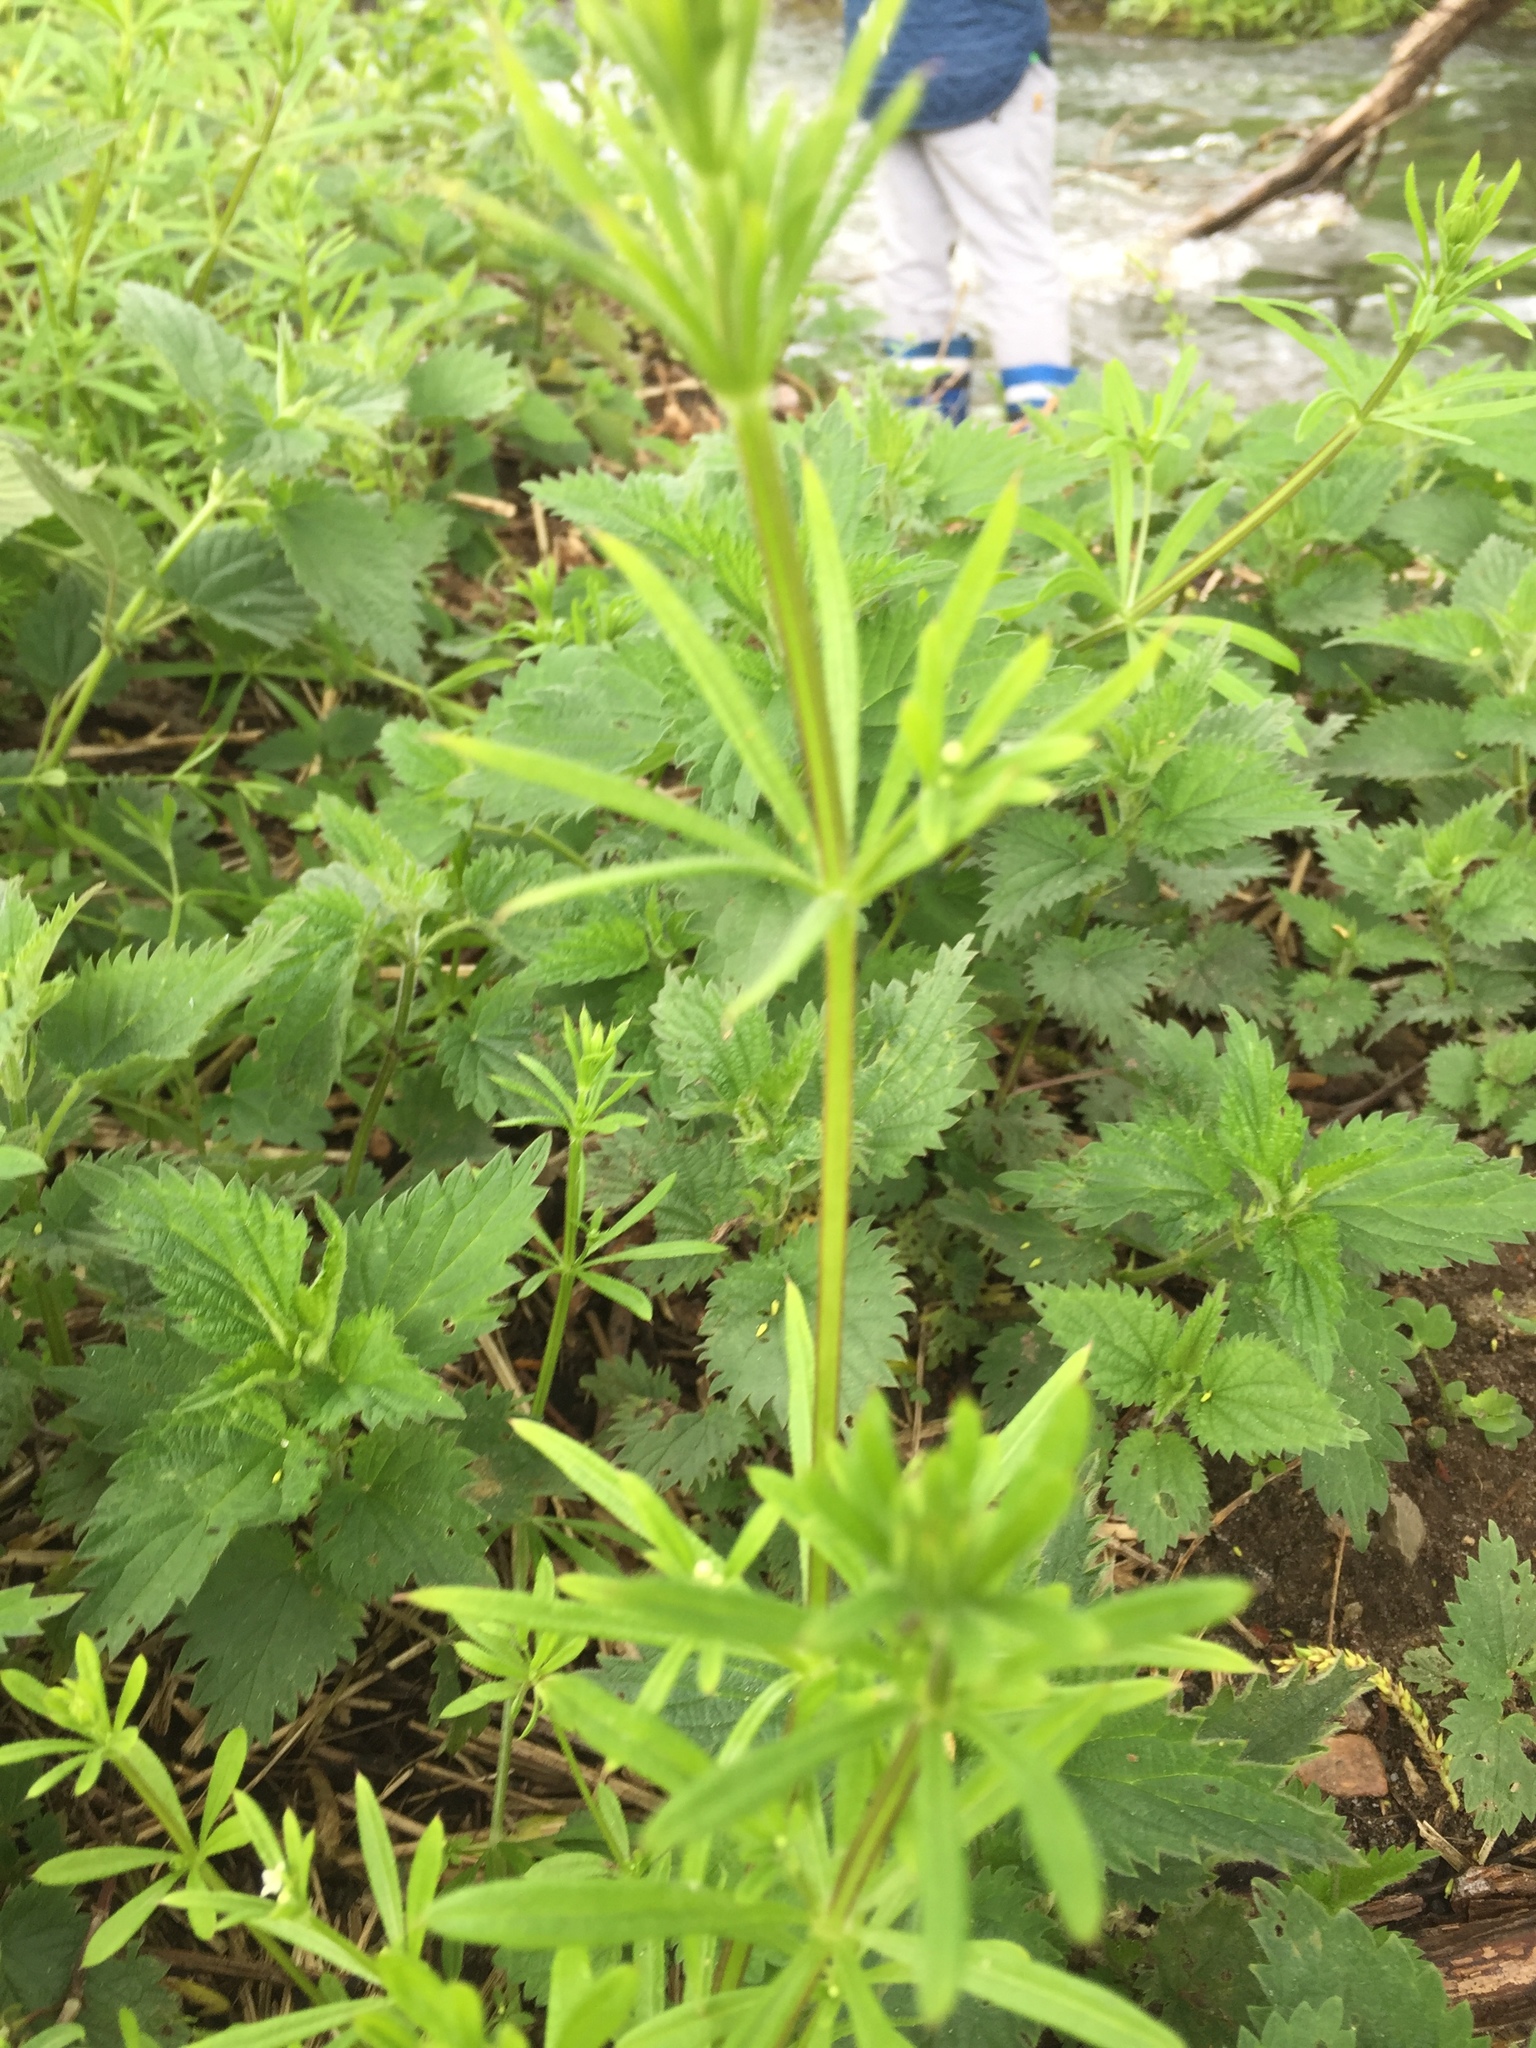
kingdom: Plantae
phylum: Tracheophyta
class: Magnoliopsida
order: Gentianales
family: Rubiaceae
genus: Galium
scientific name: Galium aparine
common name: Cleavers
